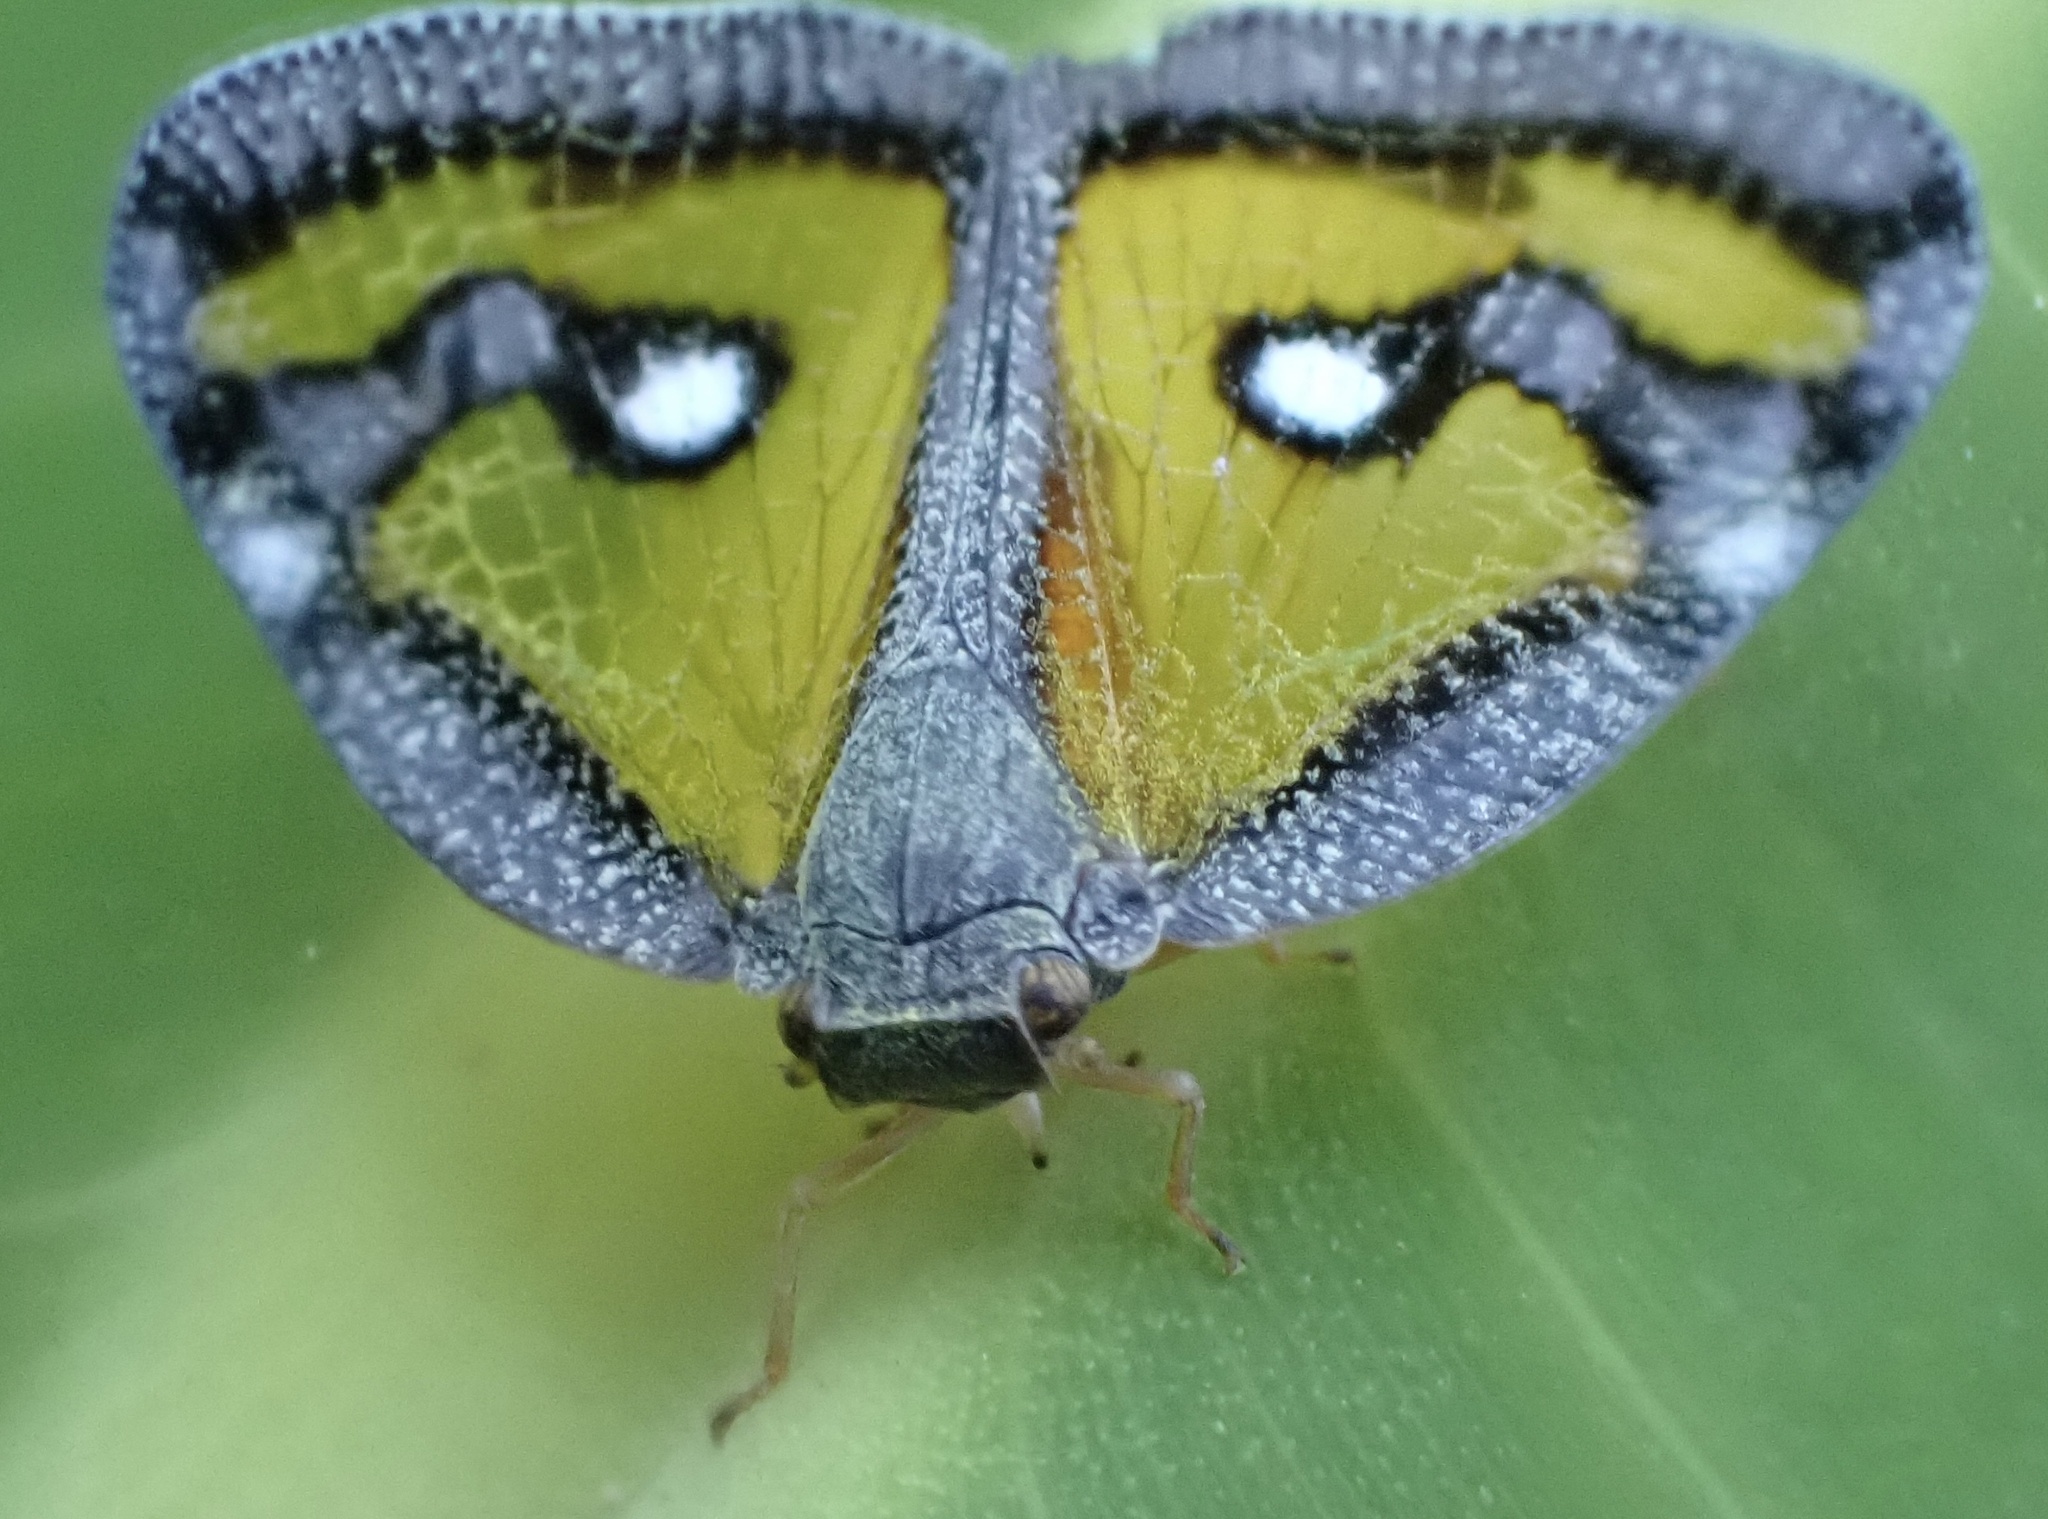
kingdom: Animalia
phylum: Arthropoda
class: Insecta
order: Hemiptera
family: Ricaniidae
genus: Euricania
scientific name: Euricania splendida
